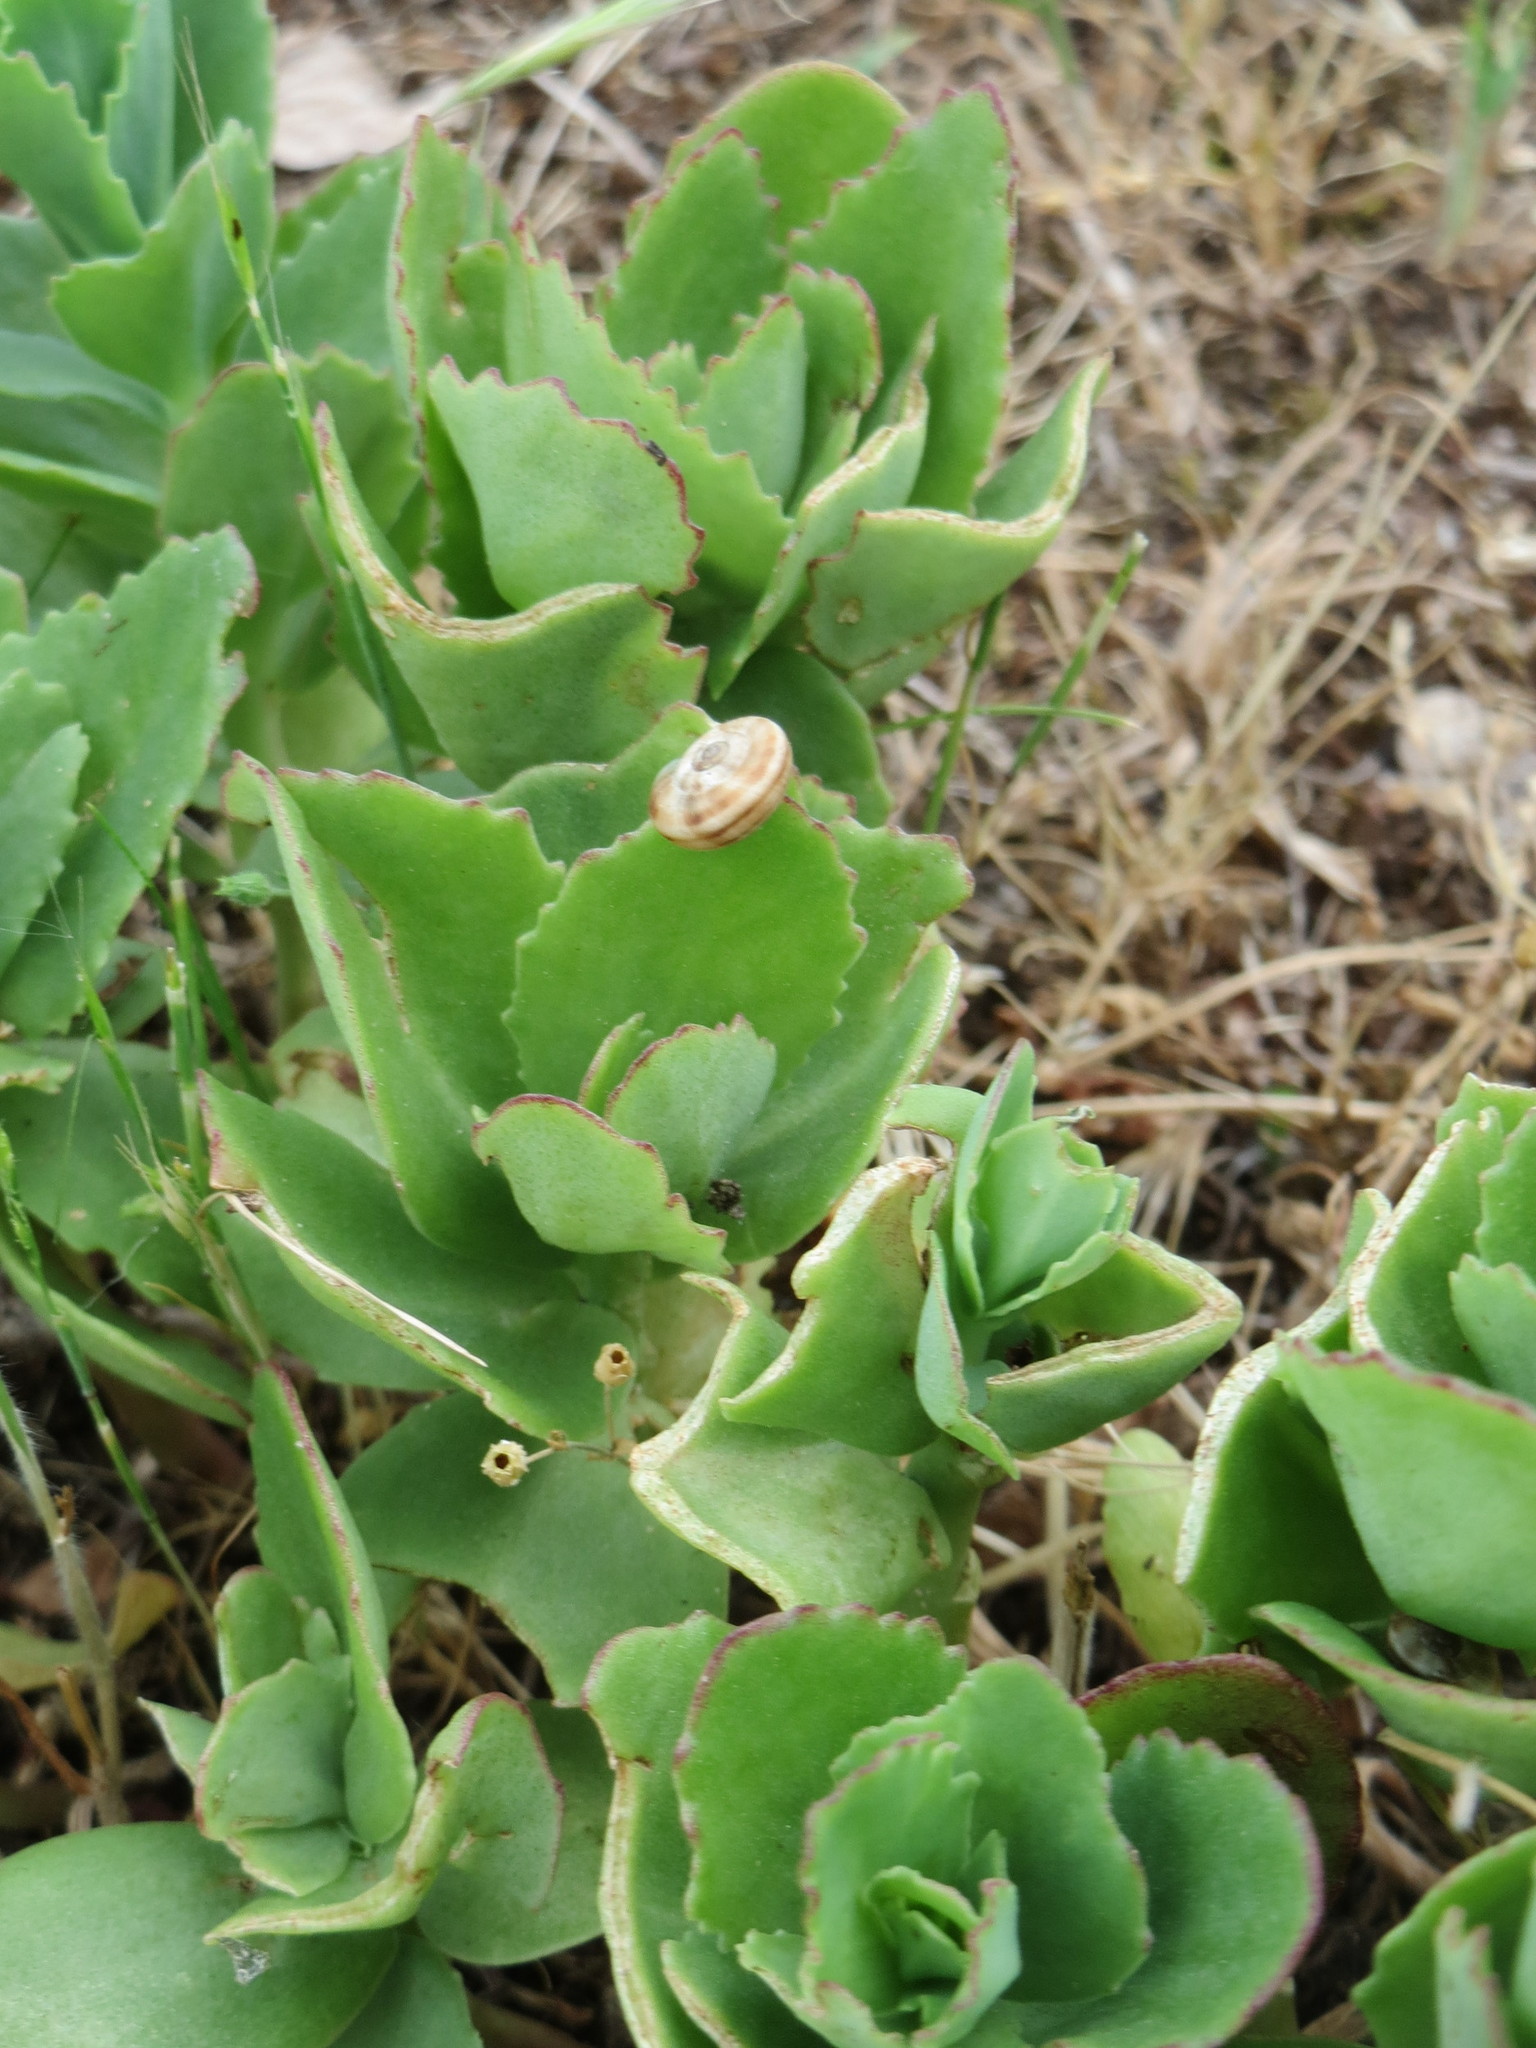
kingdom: Plantae
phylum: Tracheophyta
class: Magnoliopsida
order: Saxifragales
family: Crassulaceae
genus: Hylotelephium
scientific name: Hylotelephium telephium
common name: Live-forever
